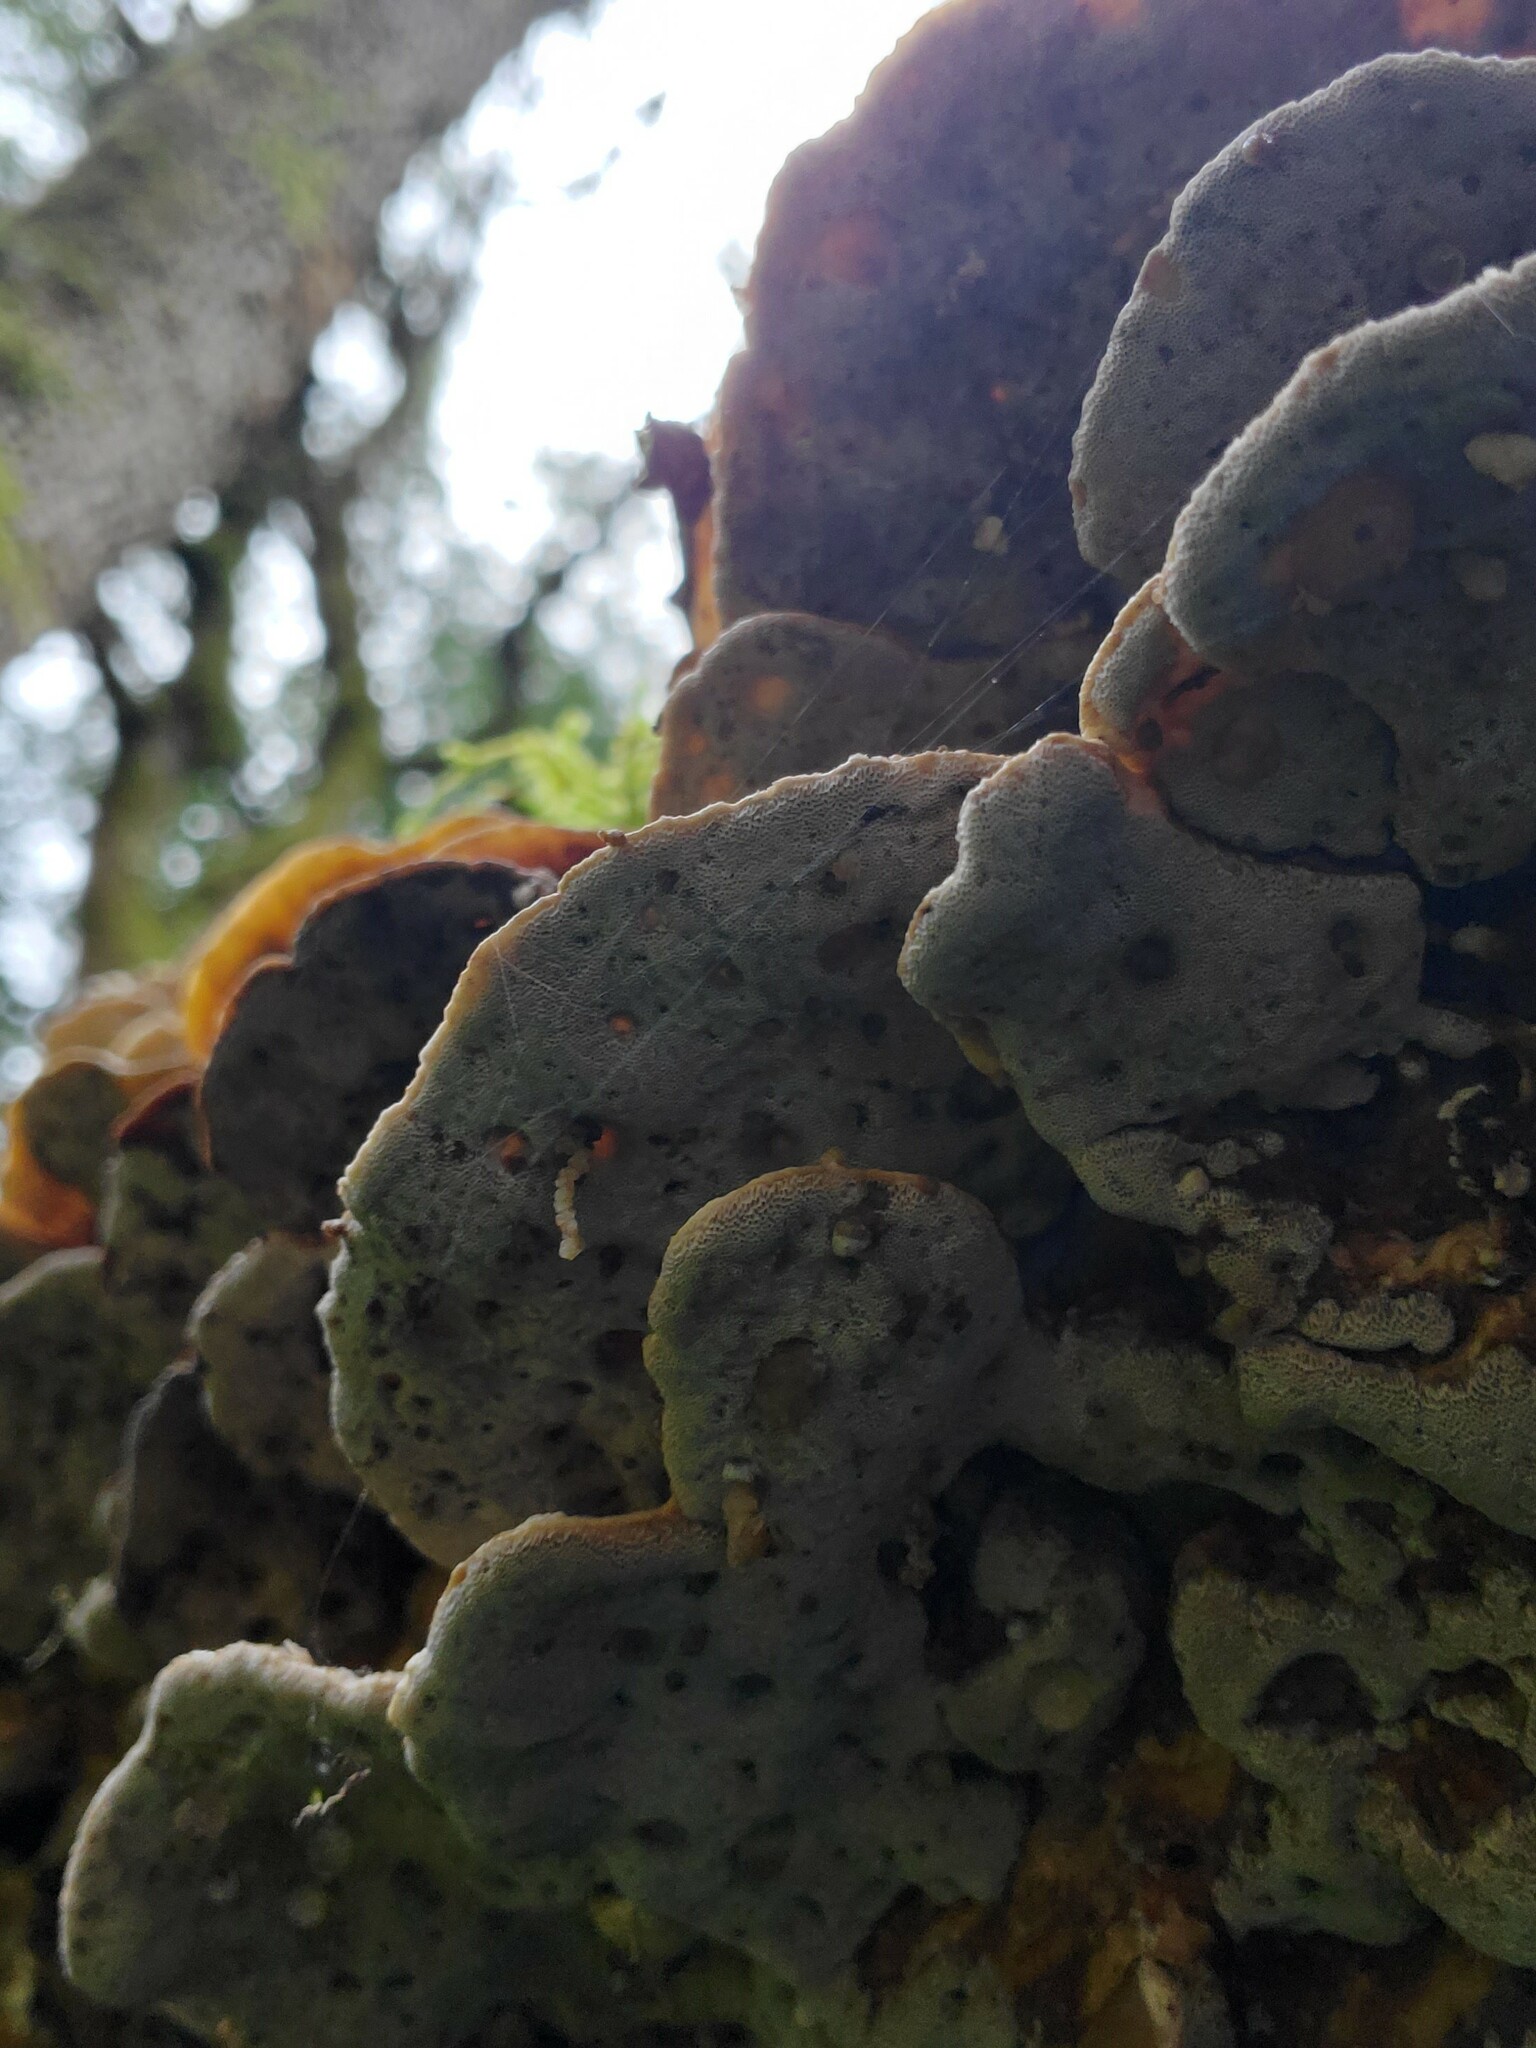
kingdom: Fungi
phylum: Basidiomycota
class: Agaricomycetes
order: Polyporales
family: Polyporaceae
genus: Trametes
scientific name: Trametes versicolor
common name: Turkeytail
